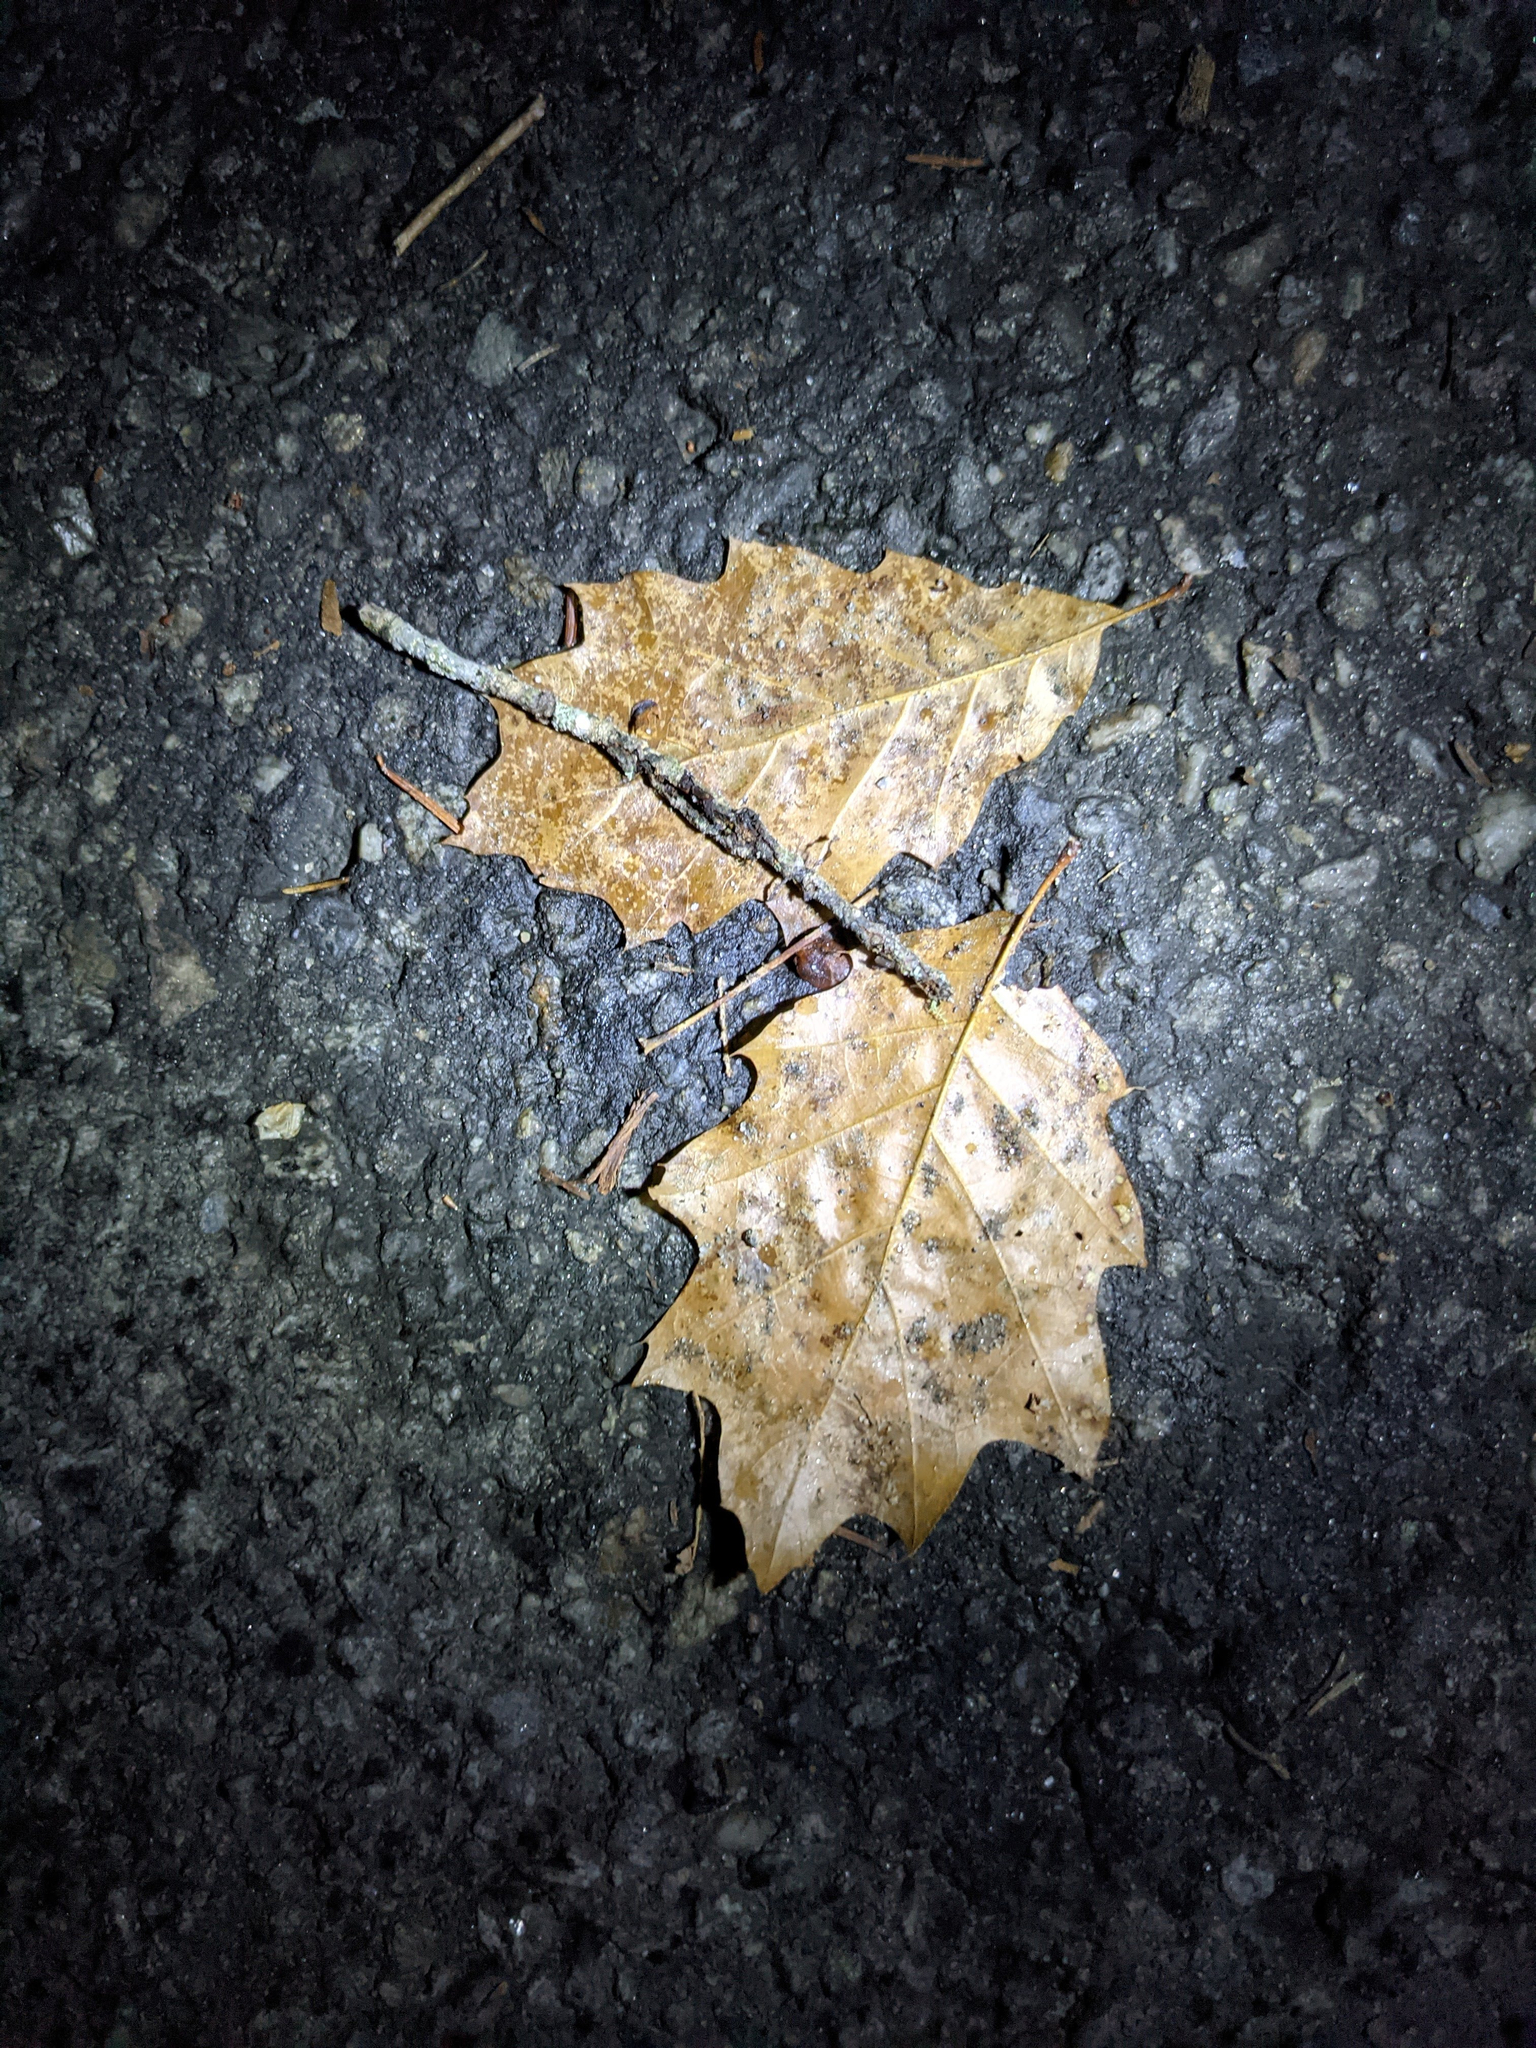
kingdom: Plantae
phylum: Tracheophyta
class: Magnoliopsida
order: Fagales
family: Fagaceae
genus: Quercus
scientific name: Quercus rubra
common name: Red oak
